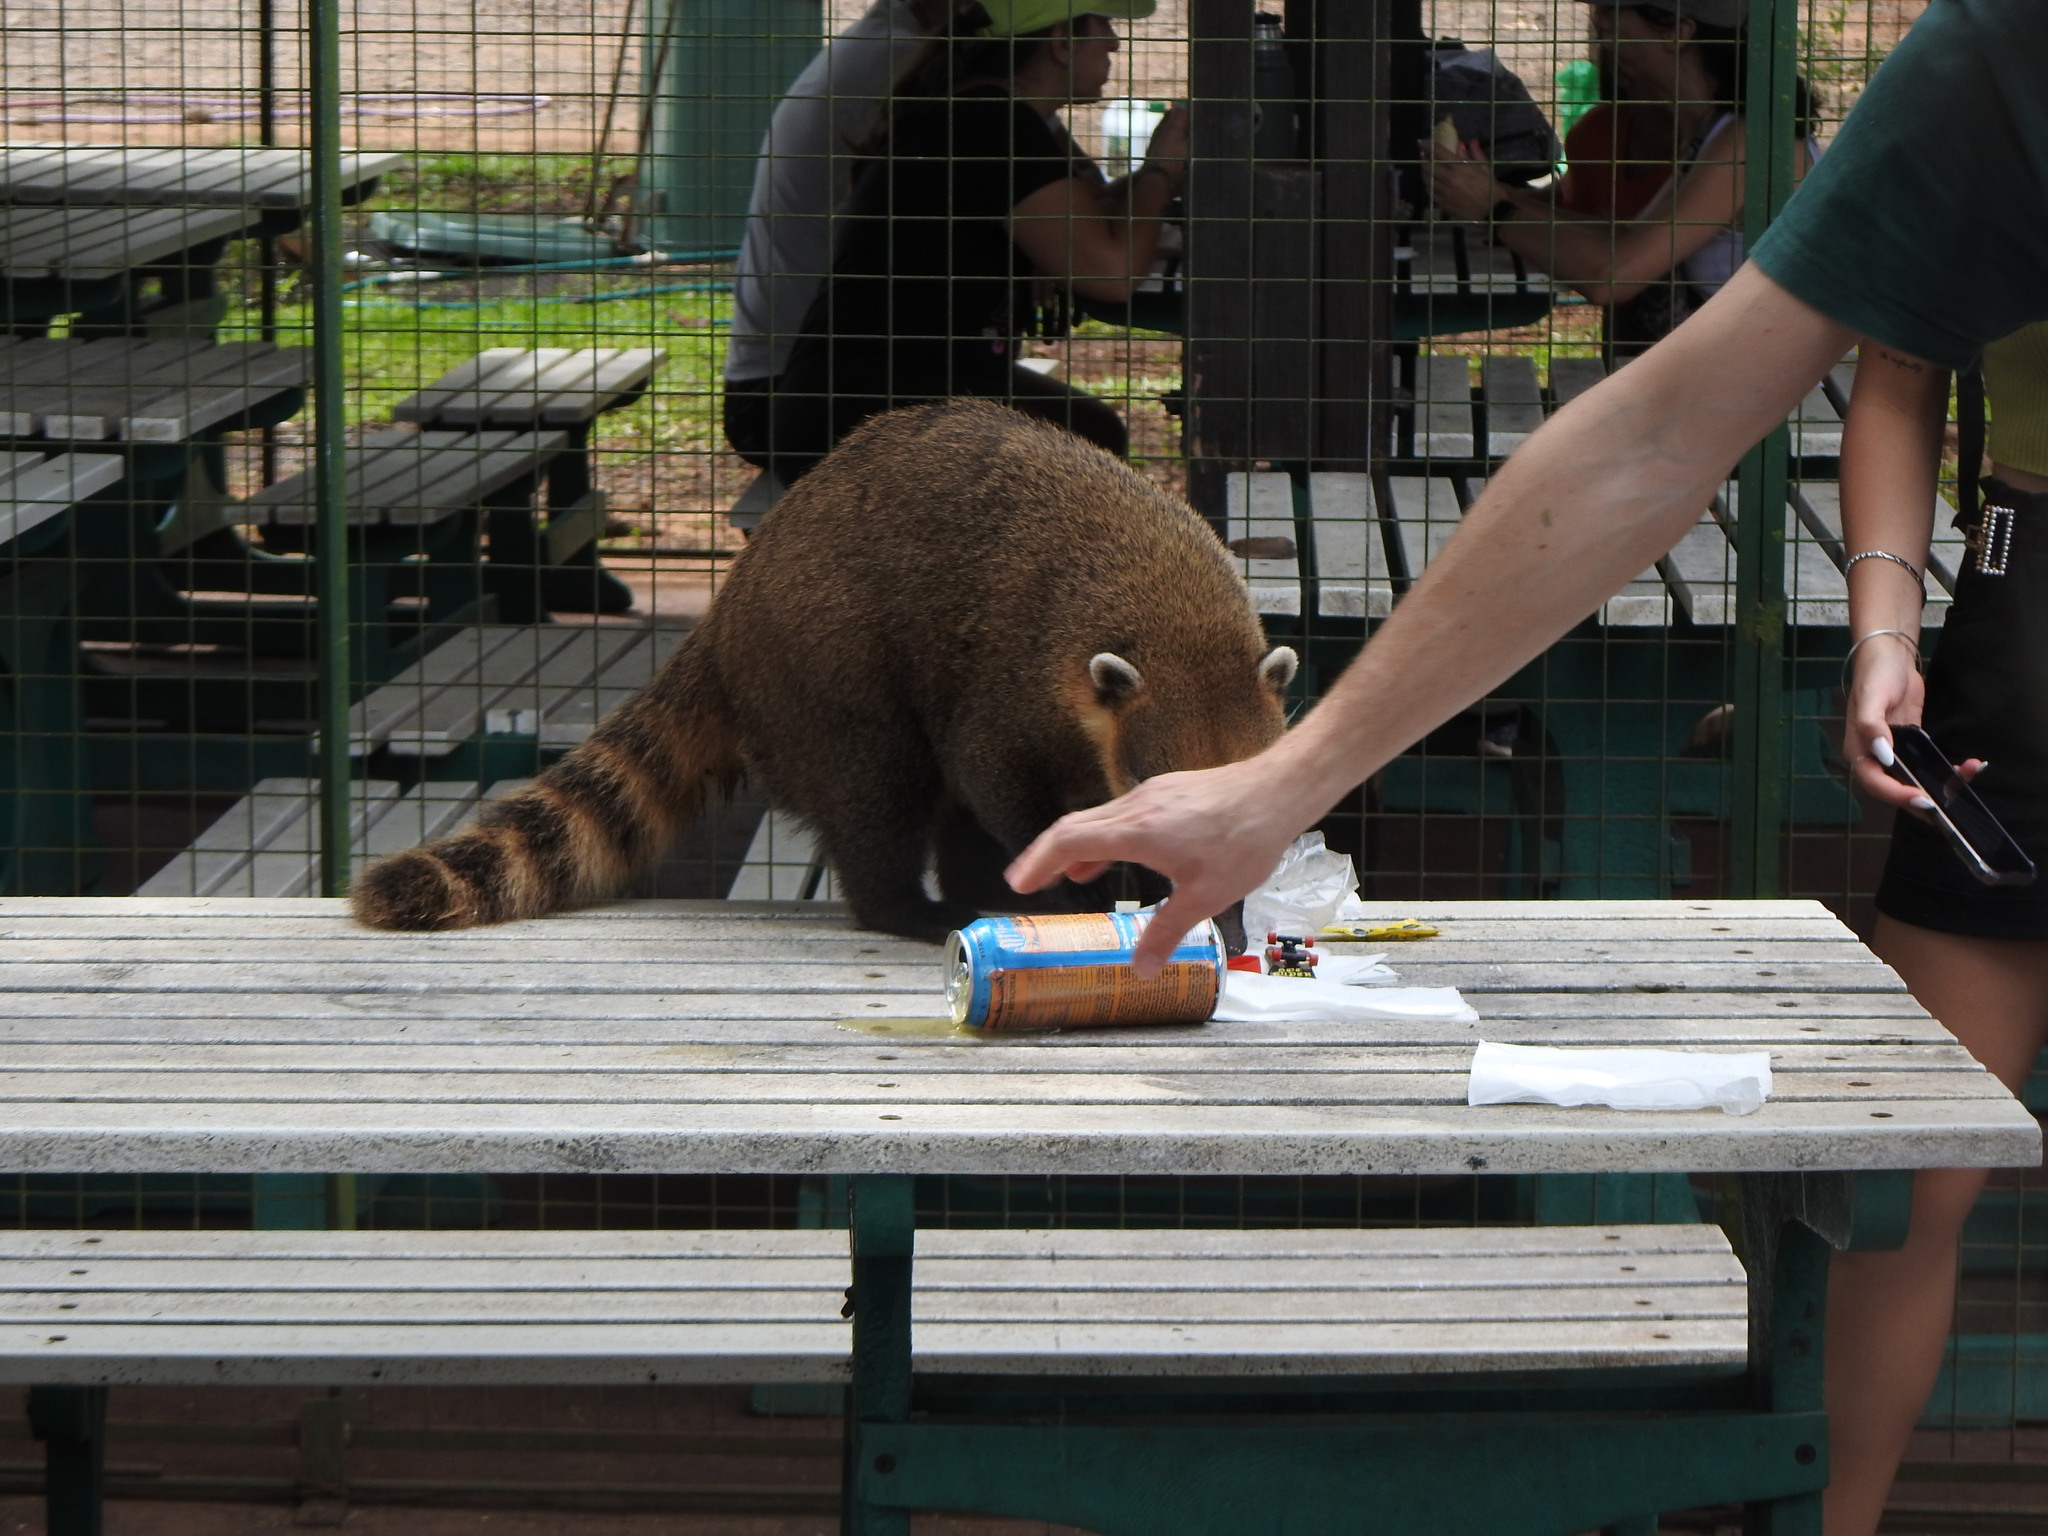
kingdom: Animalia
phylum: Chordata
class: Mammalia
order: Carnivora
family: Procyonidae
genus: Nasua
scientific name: Nasua nasua
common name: South american coati
